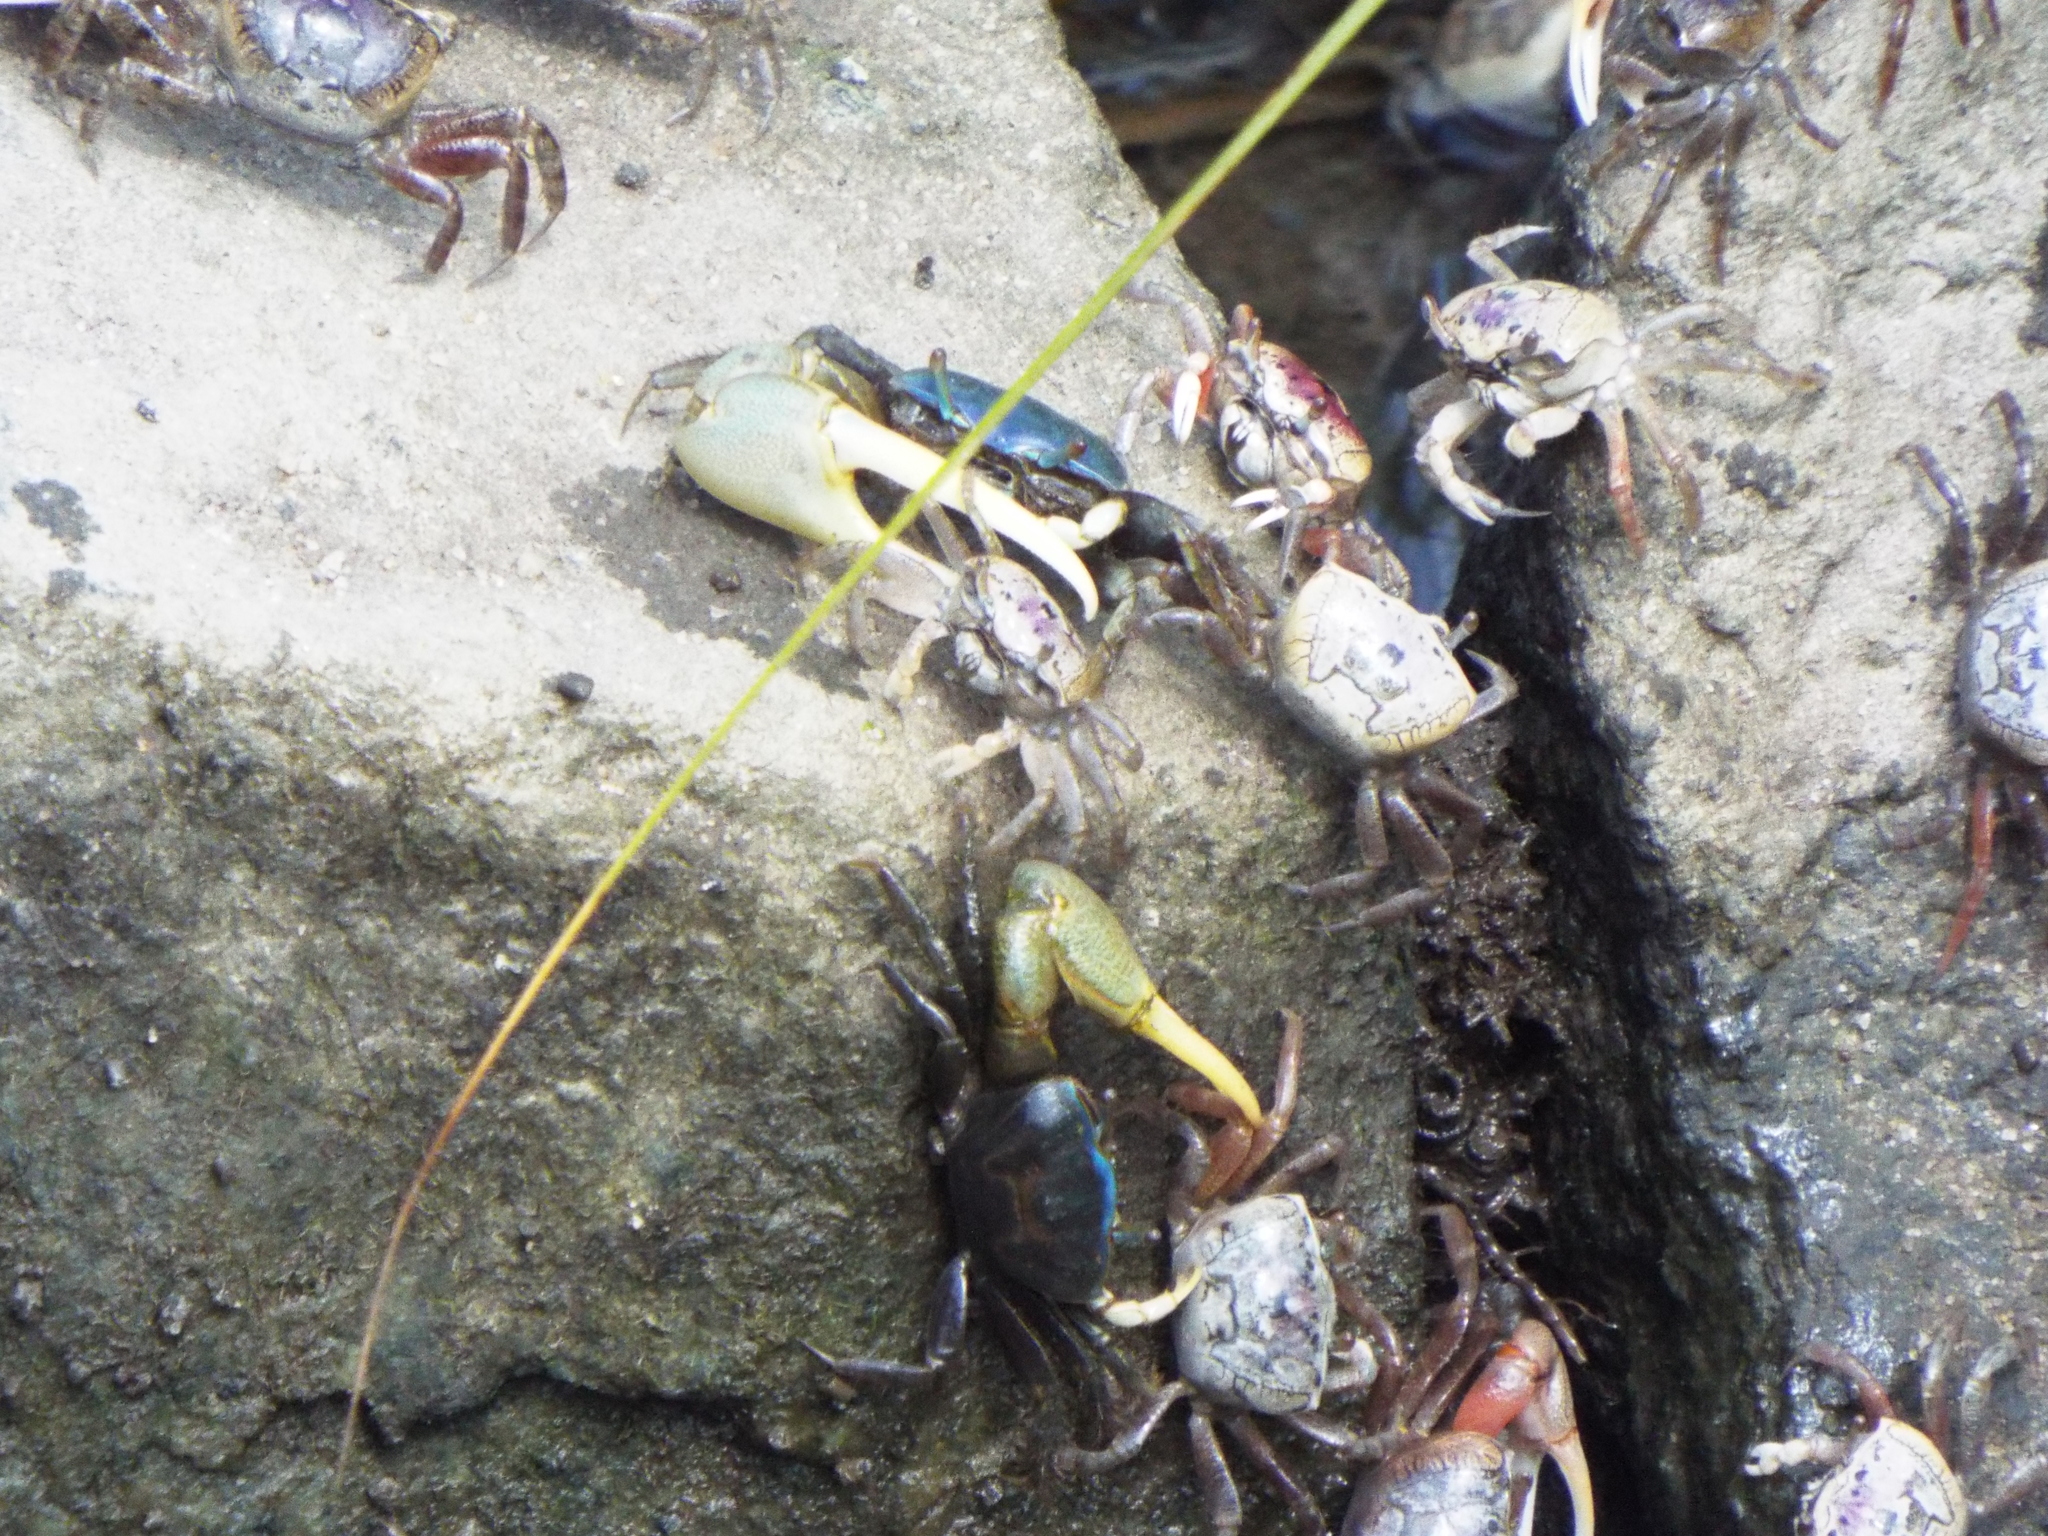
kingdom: Animalia
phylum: Arthropoda
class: Malacostraca
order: Decapoda
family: Ocypodidae
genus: Minuca
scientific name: Minuca pugnax
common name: Mud fiddler crab
